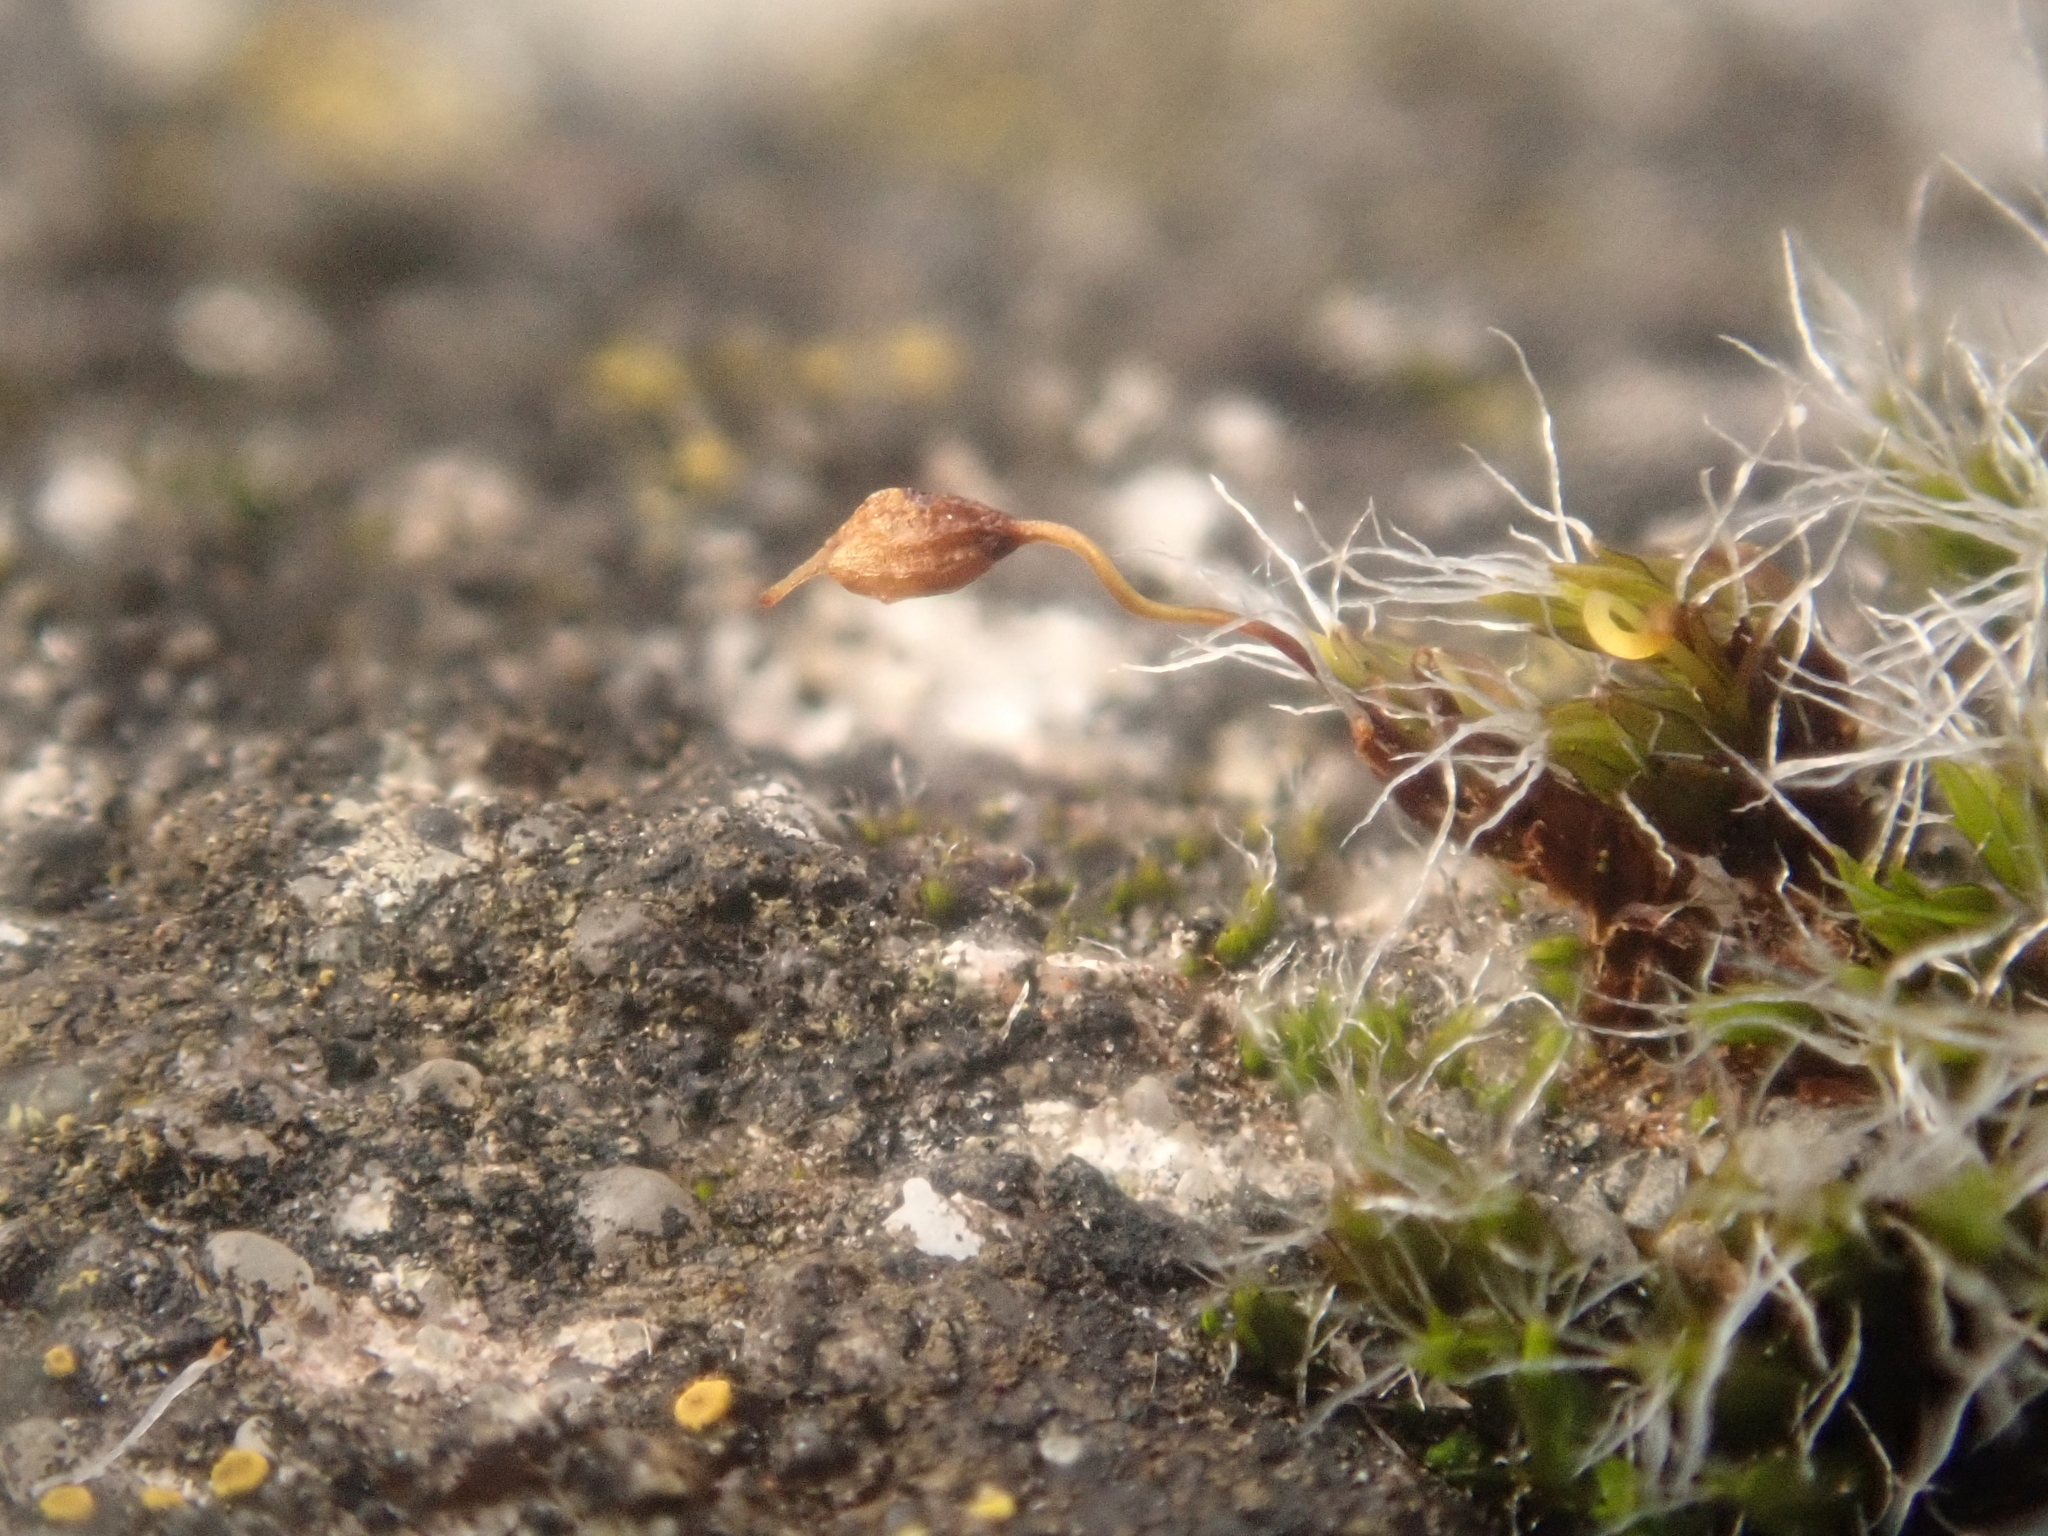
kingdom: Plantae
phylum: Bryophyta
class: Bryopsida
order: Grimmiales
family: Grimmiaceae
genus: Grimmia
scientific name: Grimmia pulvinata
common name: Grey-cushioned grimmia
